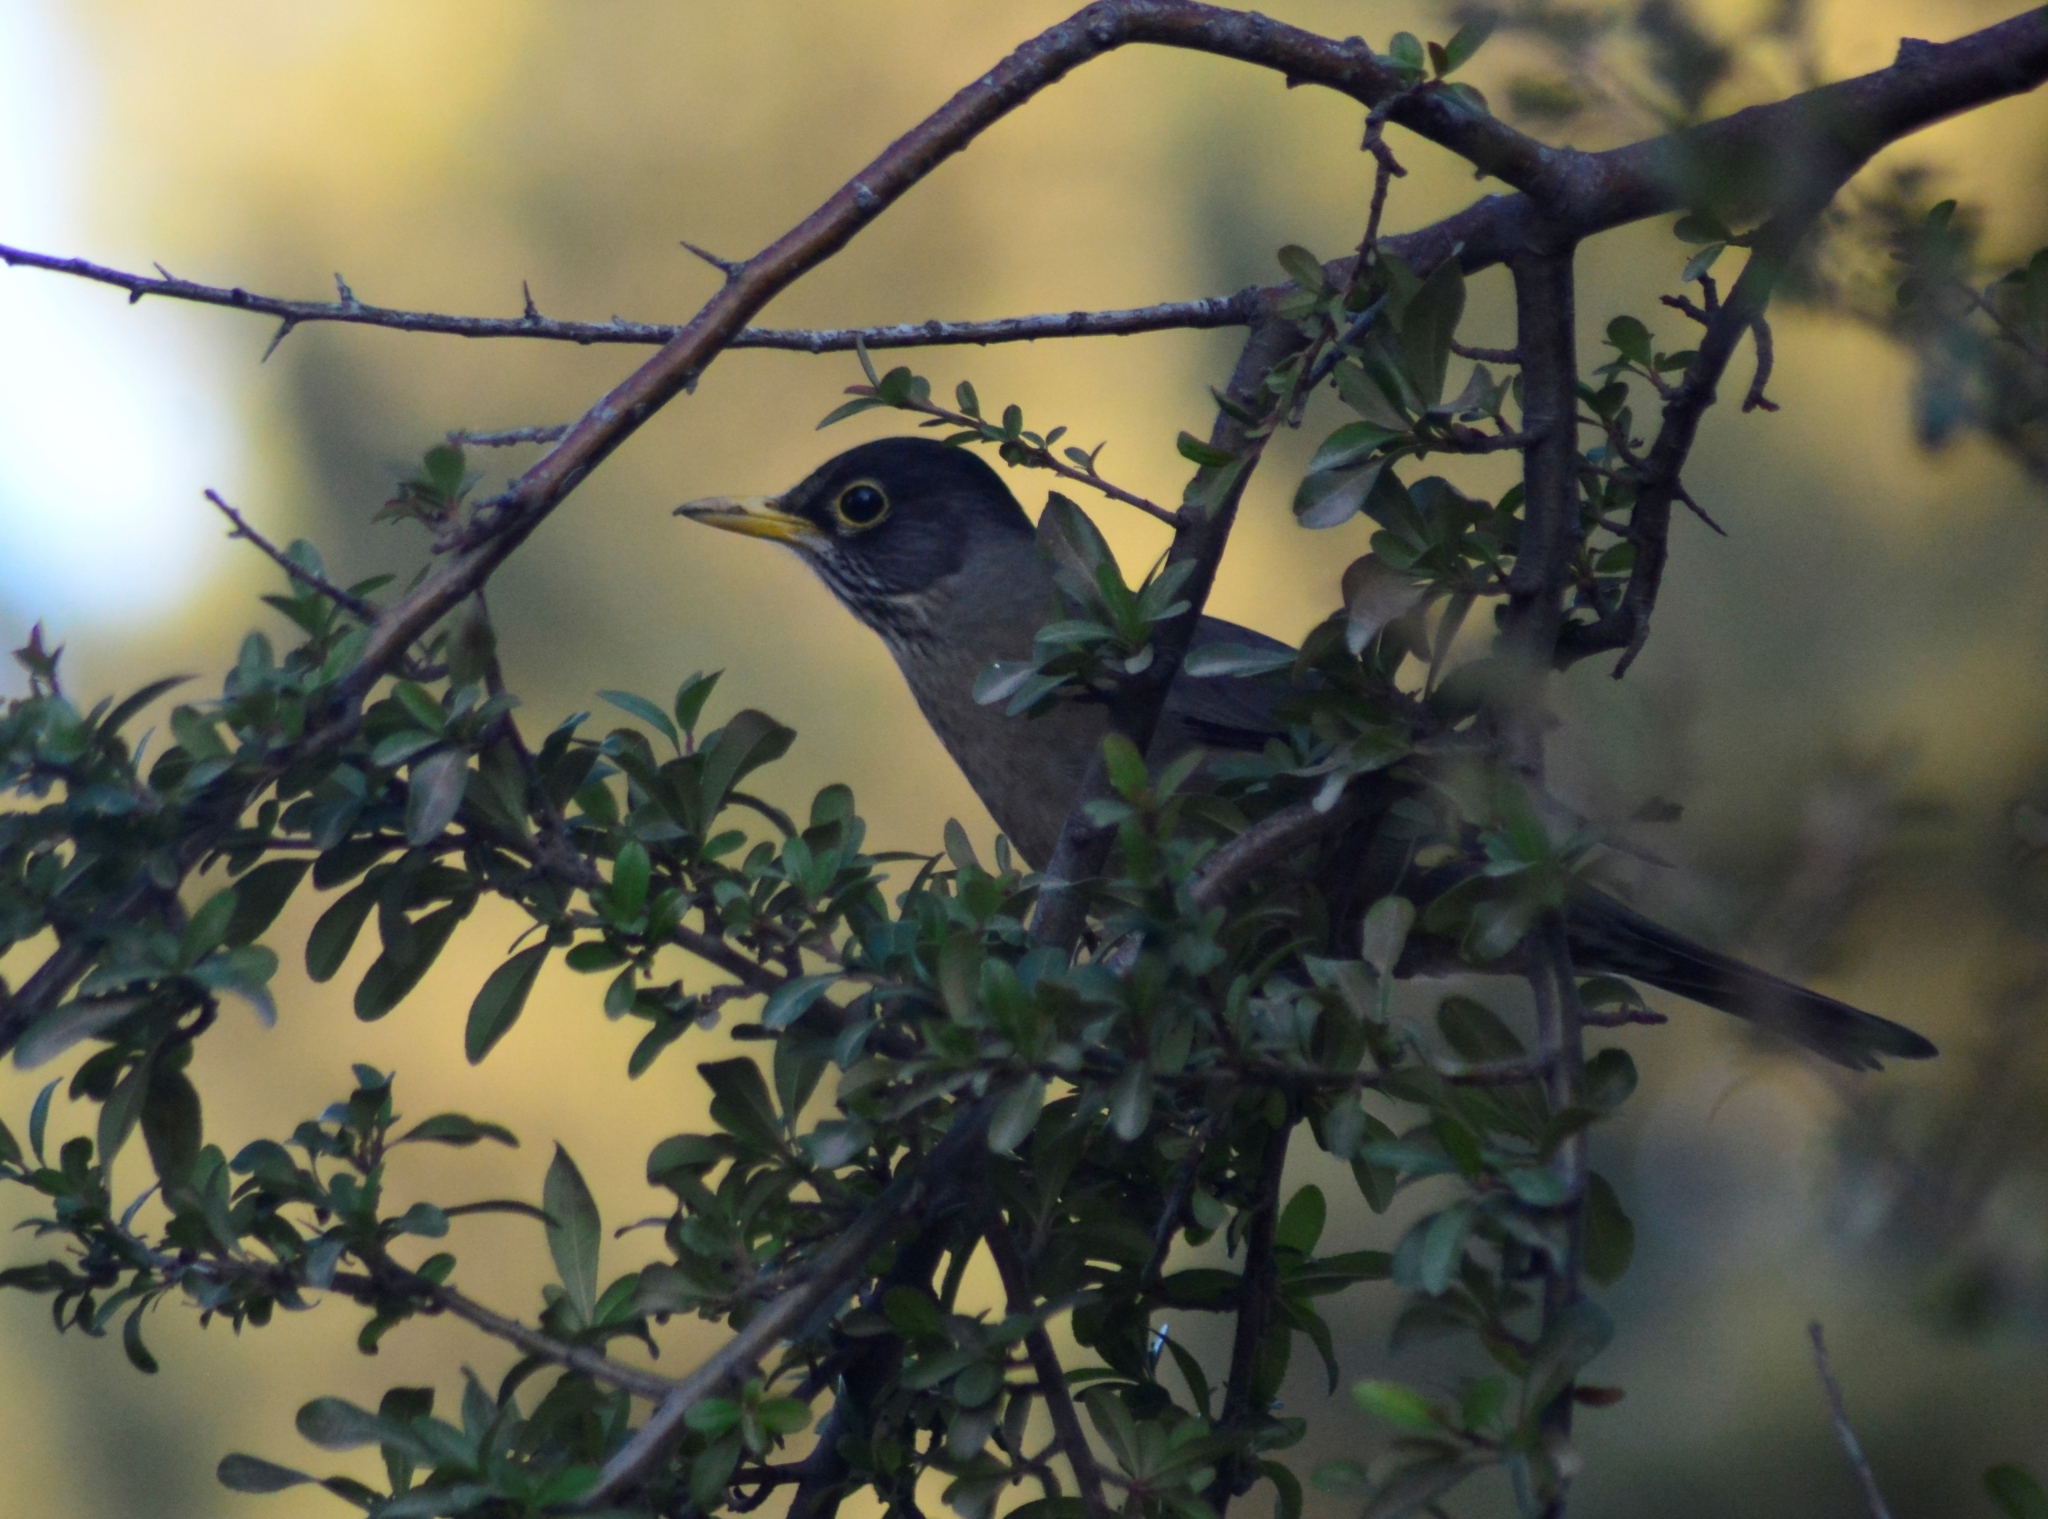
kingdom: Animalia
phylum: Chordata
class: Aves
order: Passeriformes
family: Turdidae
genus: Turdus
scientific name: Turdus falcklandii
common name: Austral thrush
